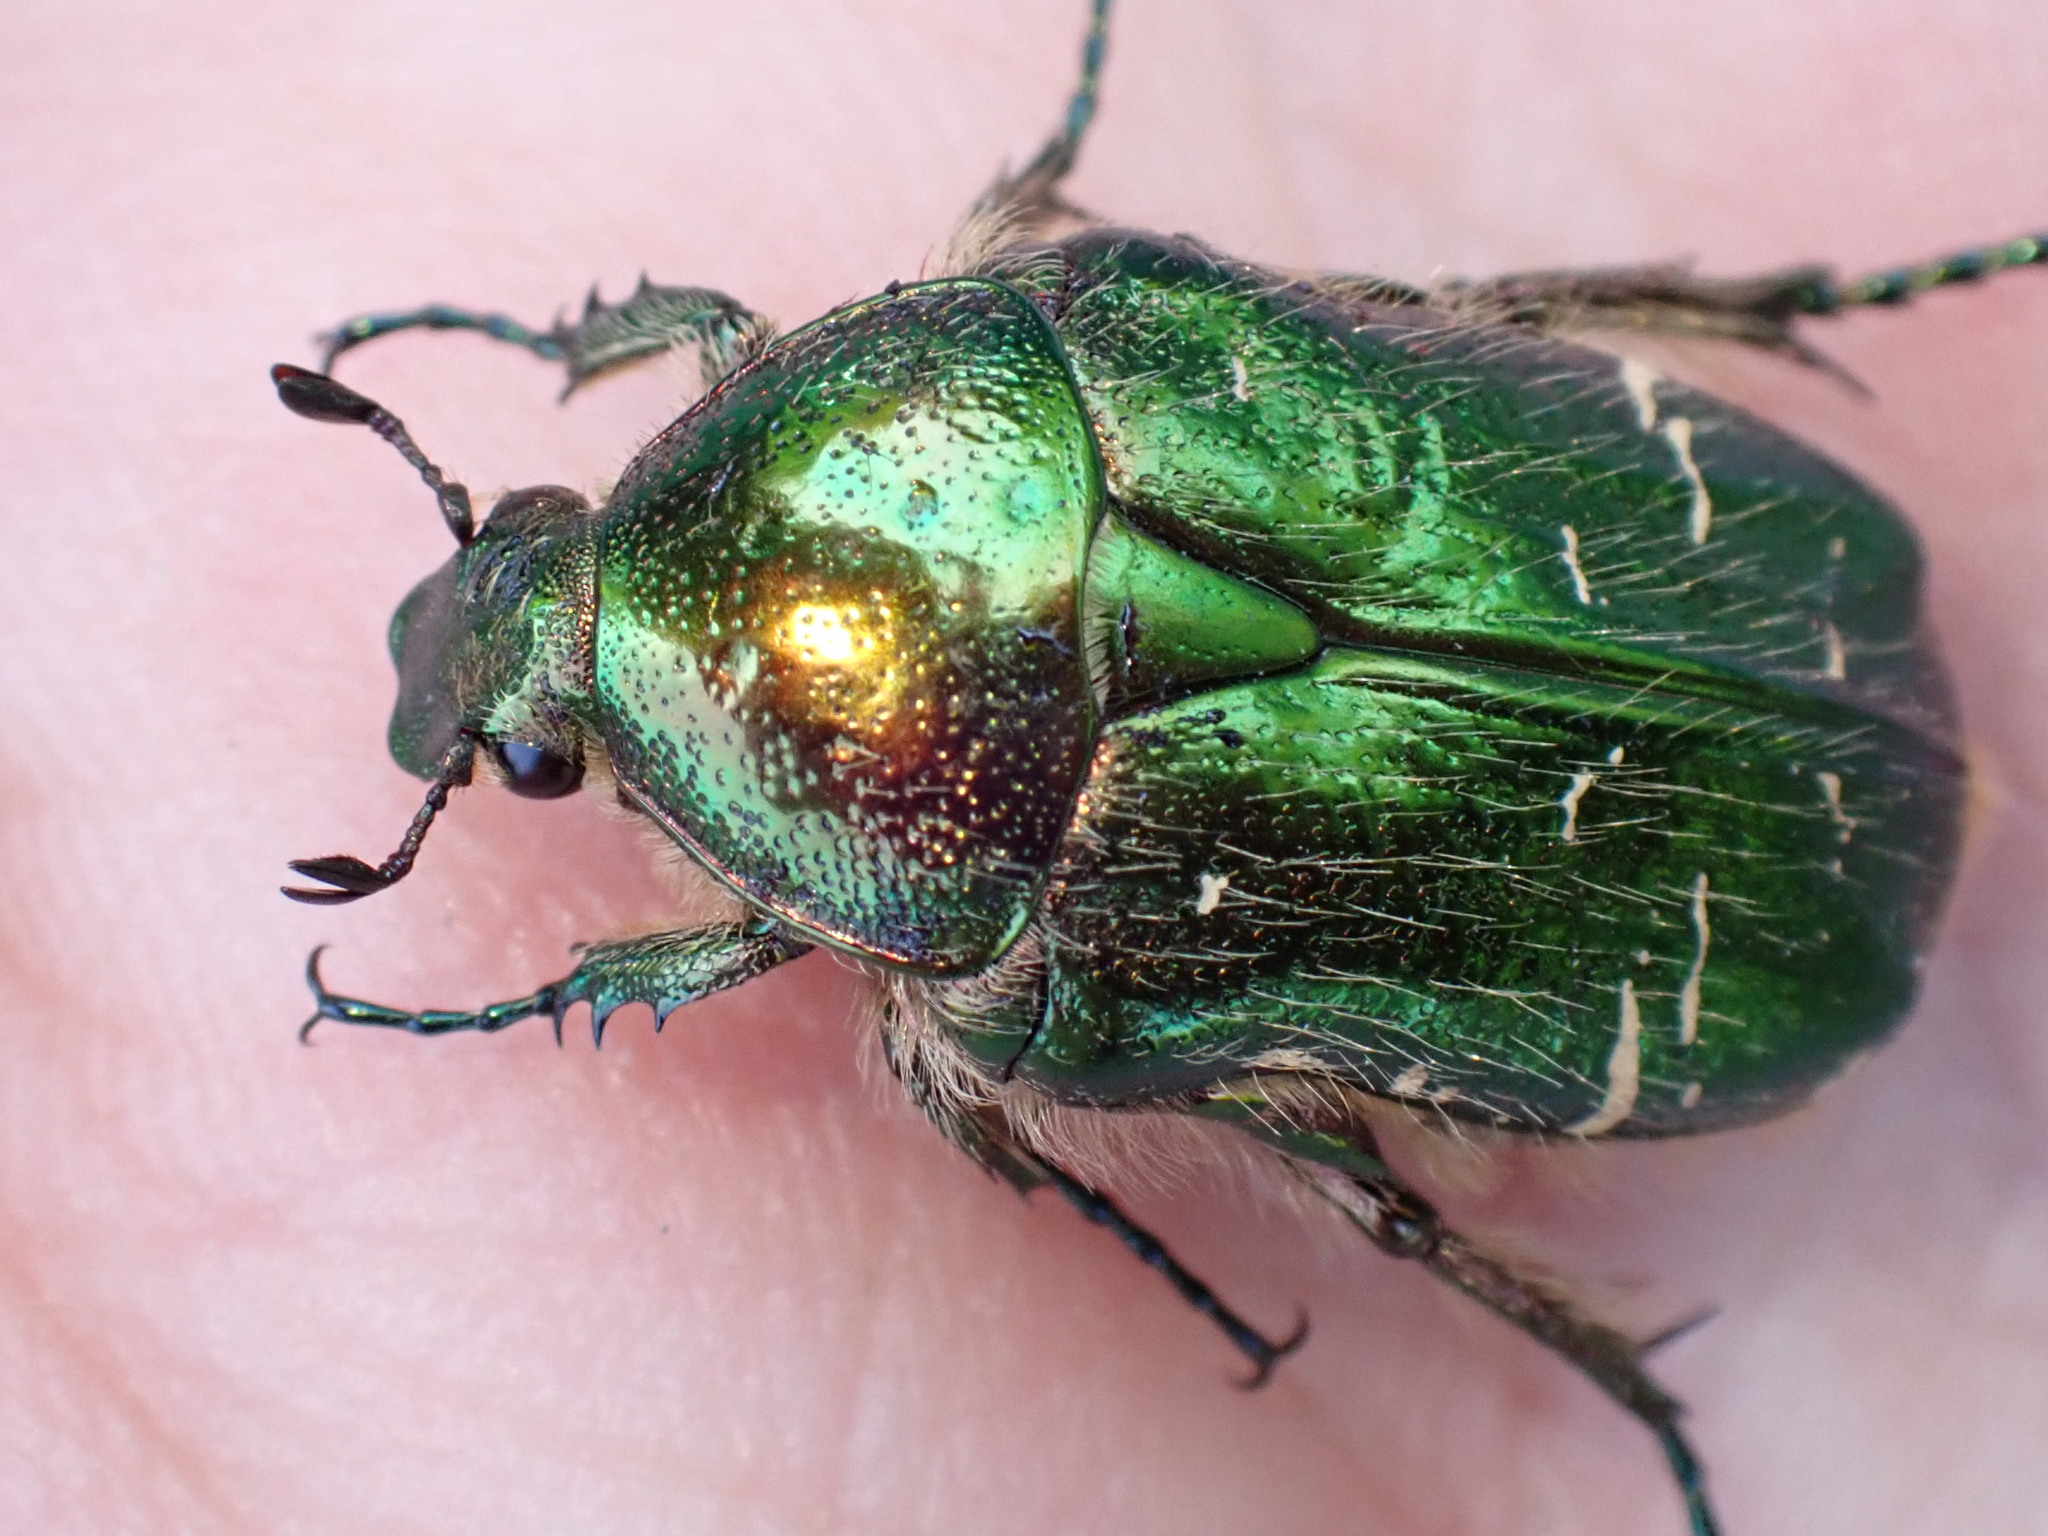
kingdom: Animalia
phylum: Arthropoda
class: Insecta
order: Coleoptera
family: Scarabaeidae
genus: Cetonia
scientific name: Cetonia aurata
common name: Rose chafer
